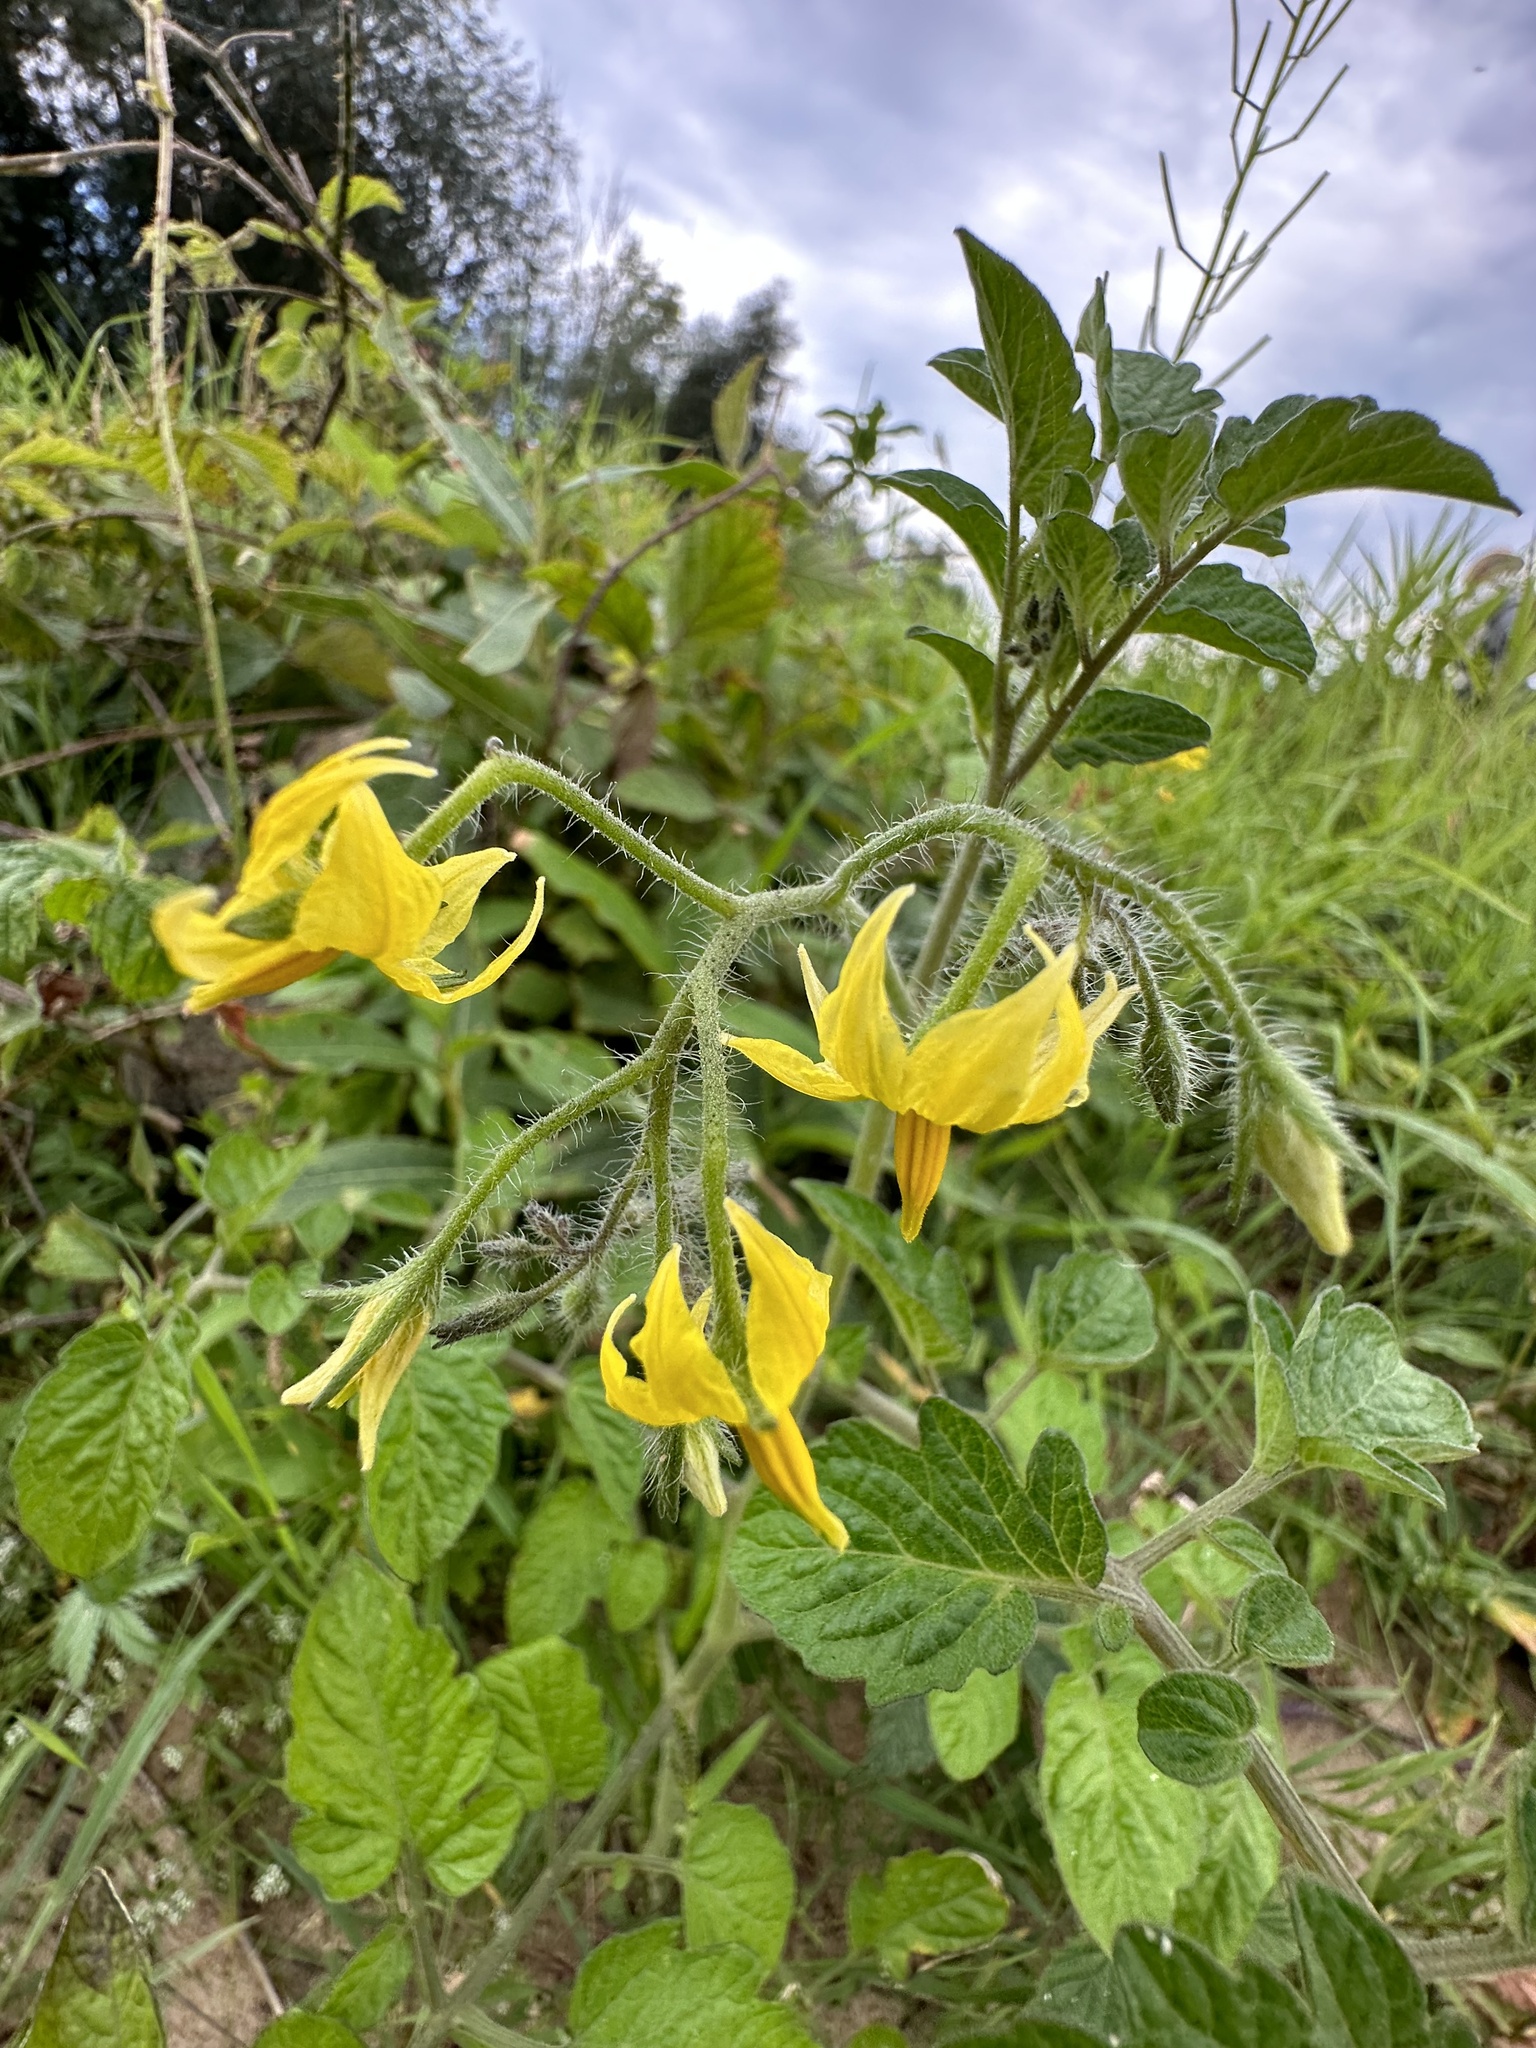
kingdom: Plantae
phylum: Tracheophyta
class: Magnoliopsida
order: Solanales
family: Solanaceae
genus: Solanum
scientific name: Solanum lycopersicum
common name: Garden tomato
